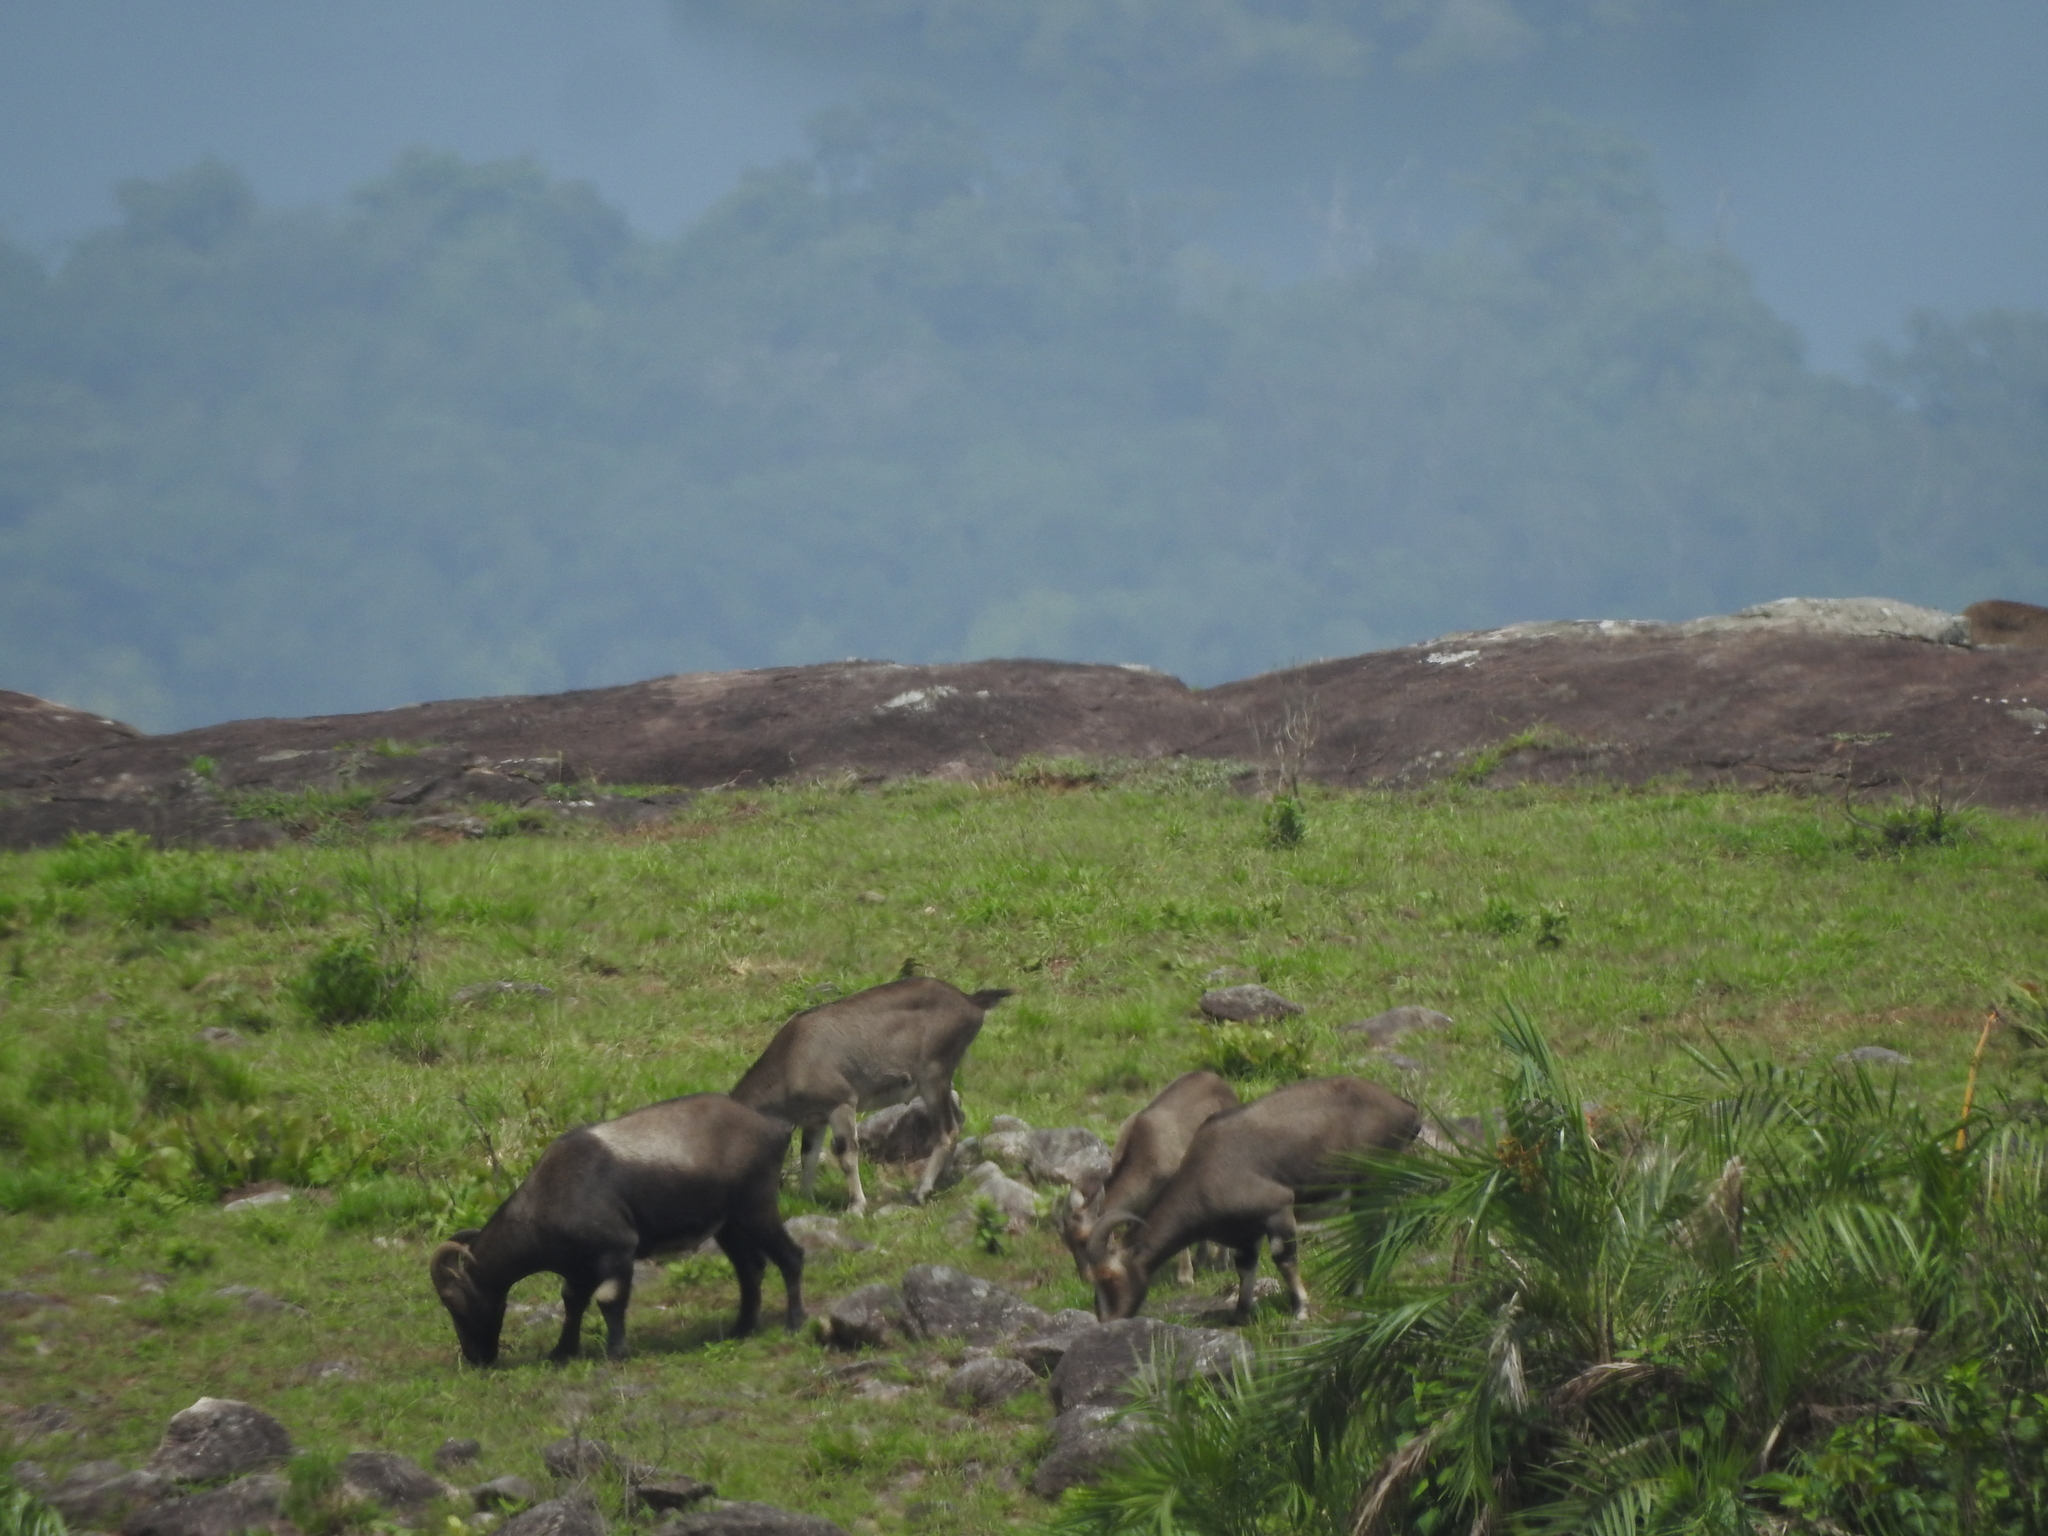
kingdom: Animalia
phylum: Chordata
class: Mammalia
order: Artiodactyla
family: Bovidae
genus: Hemitragus
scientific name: Hemitragus hylocrius
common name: Nilgiri tahr
